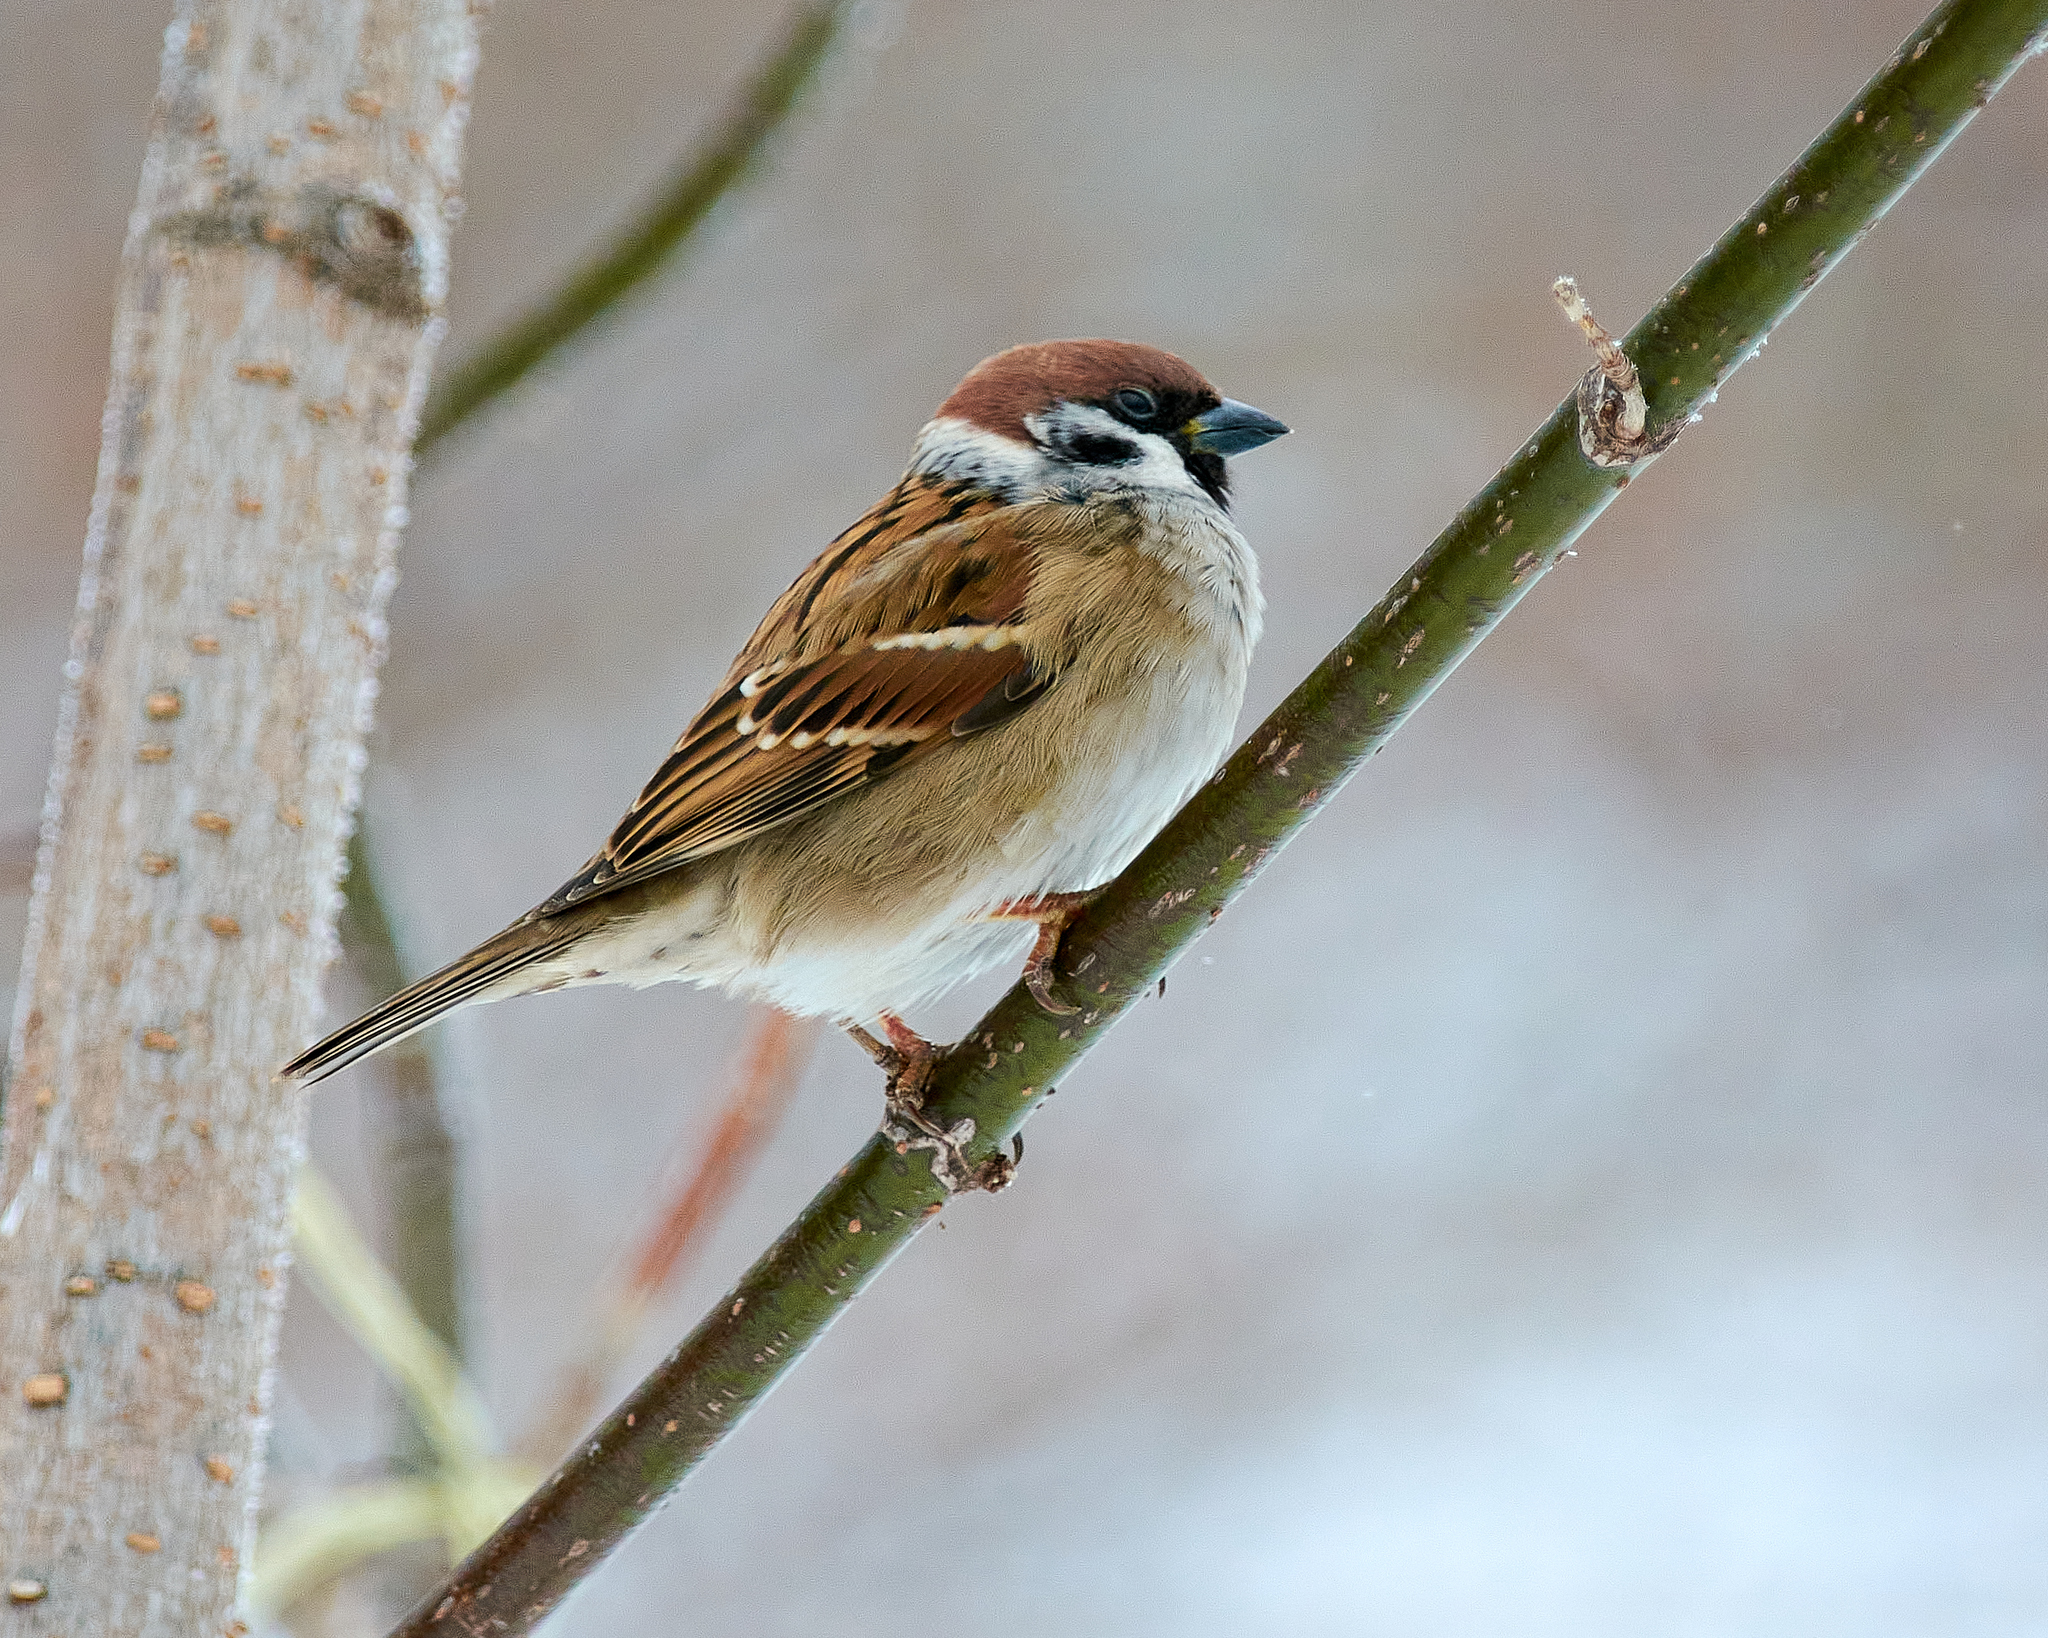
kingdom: Animalia
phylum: Chordata
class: Aves
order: Passeriformes
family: Passeridae
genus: Passer
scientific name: Passer montanus
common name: Eurasian tree sparrow
